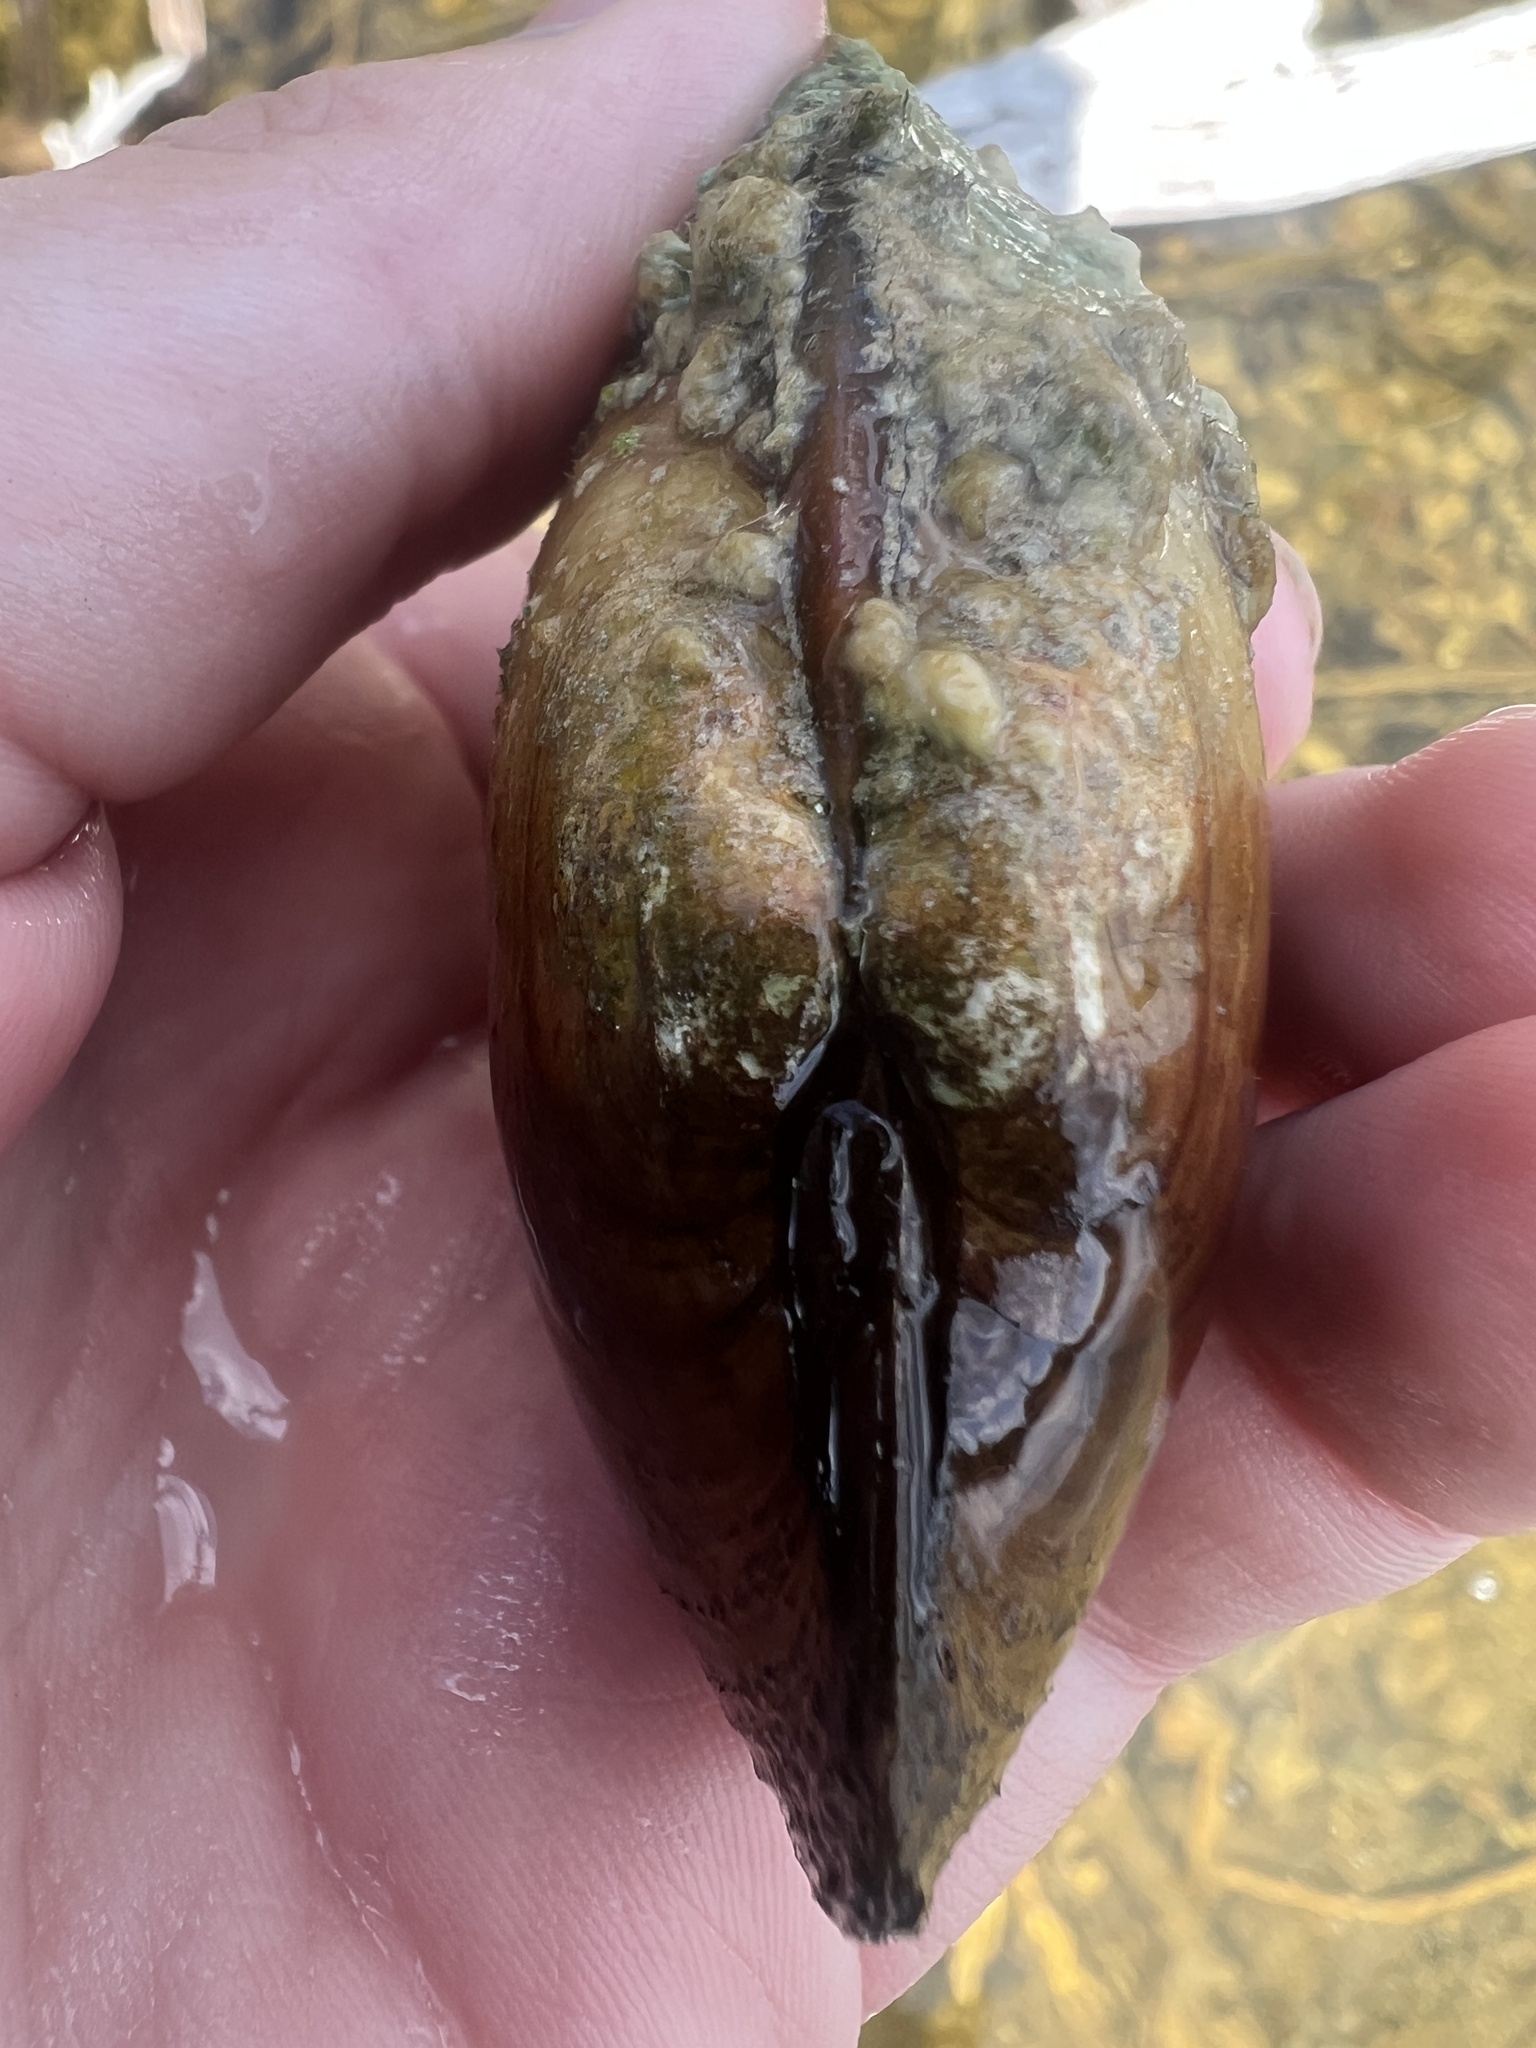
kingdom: Animalia
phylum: Mollusca
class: Bivalvia
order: Unionida
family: Unionidae
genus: Lampsilis
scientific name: Lampsilis siliquoidea
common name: Fatmucket
